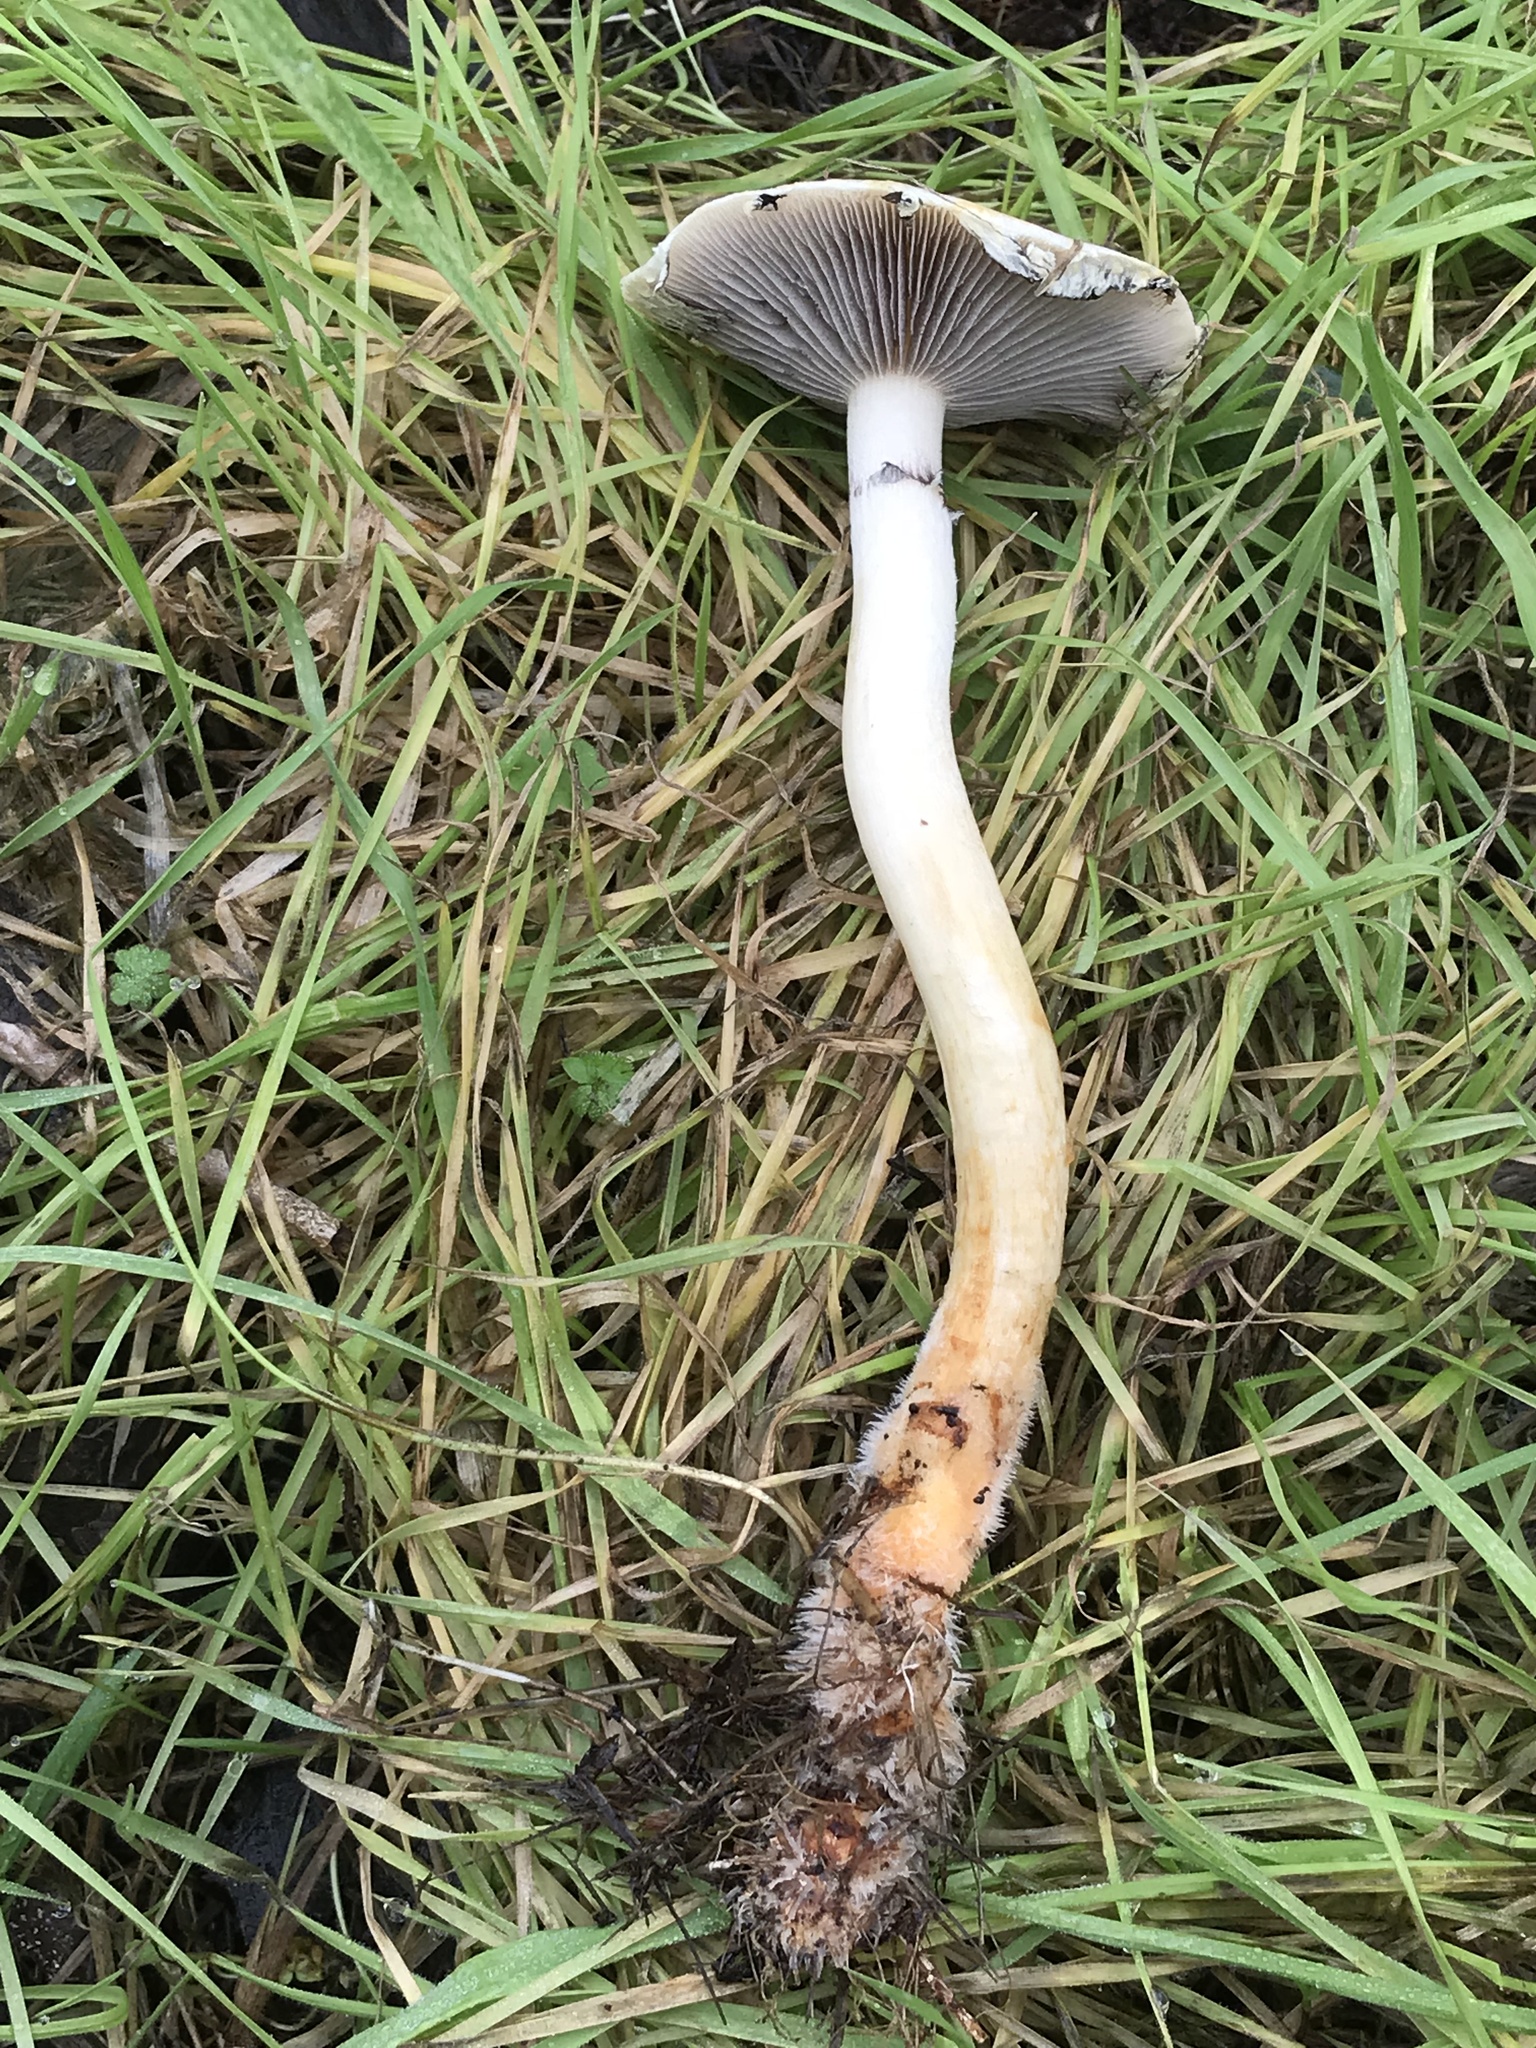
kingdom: Fungi
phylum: Basidiomycota
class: Agaricomycetes
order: Agaricales
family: Strophariaceae
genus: Leratiomyces
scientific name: Leratiomyces percevalii
